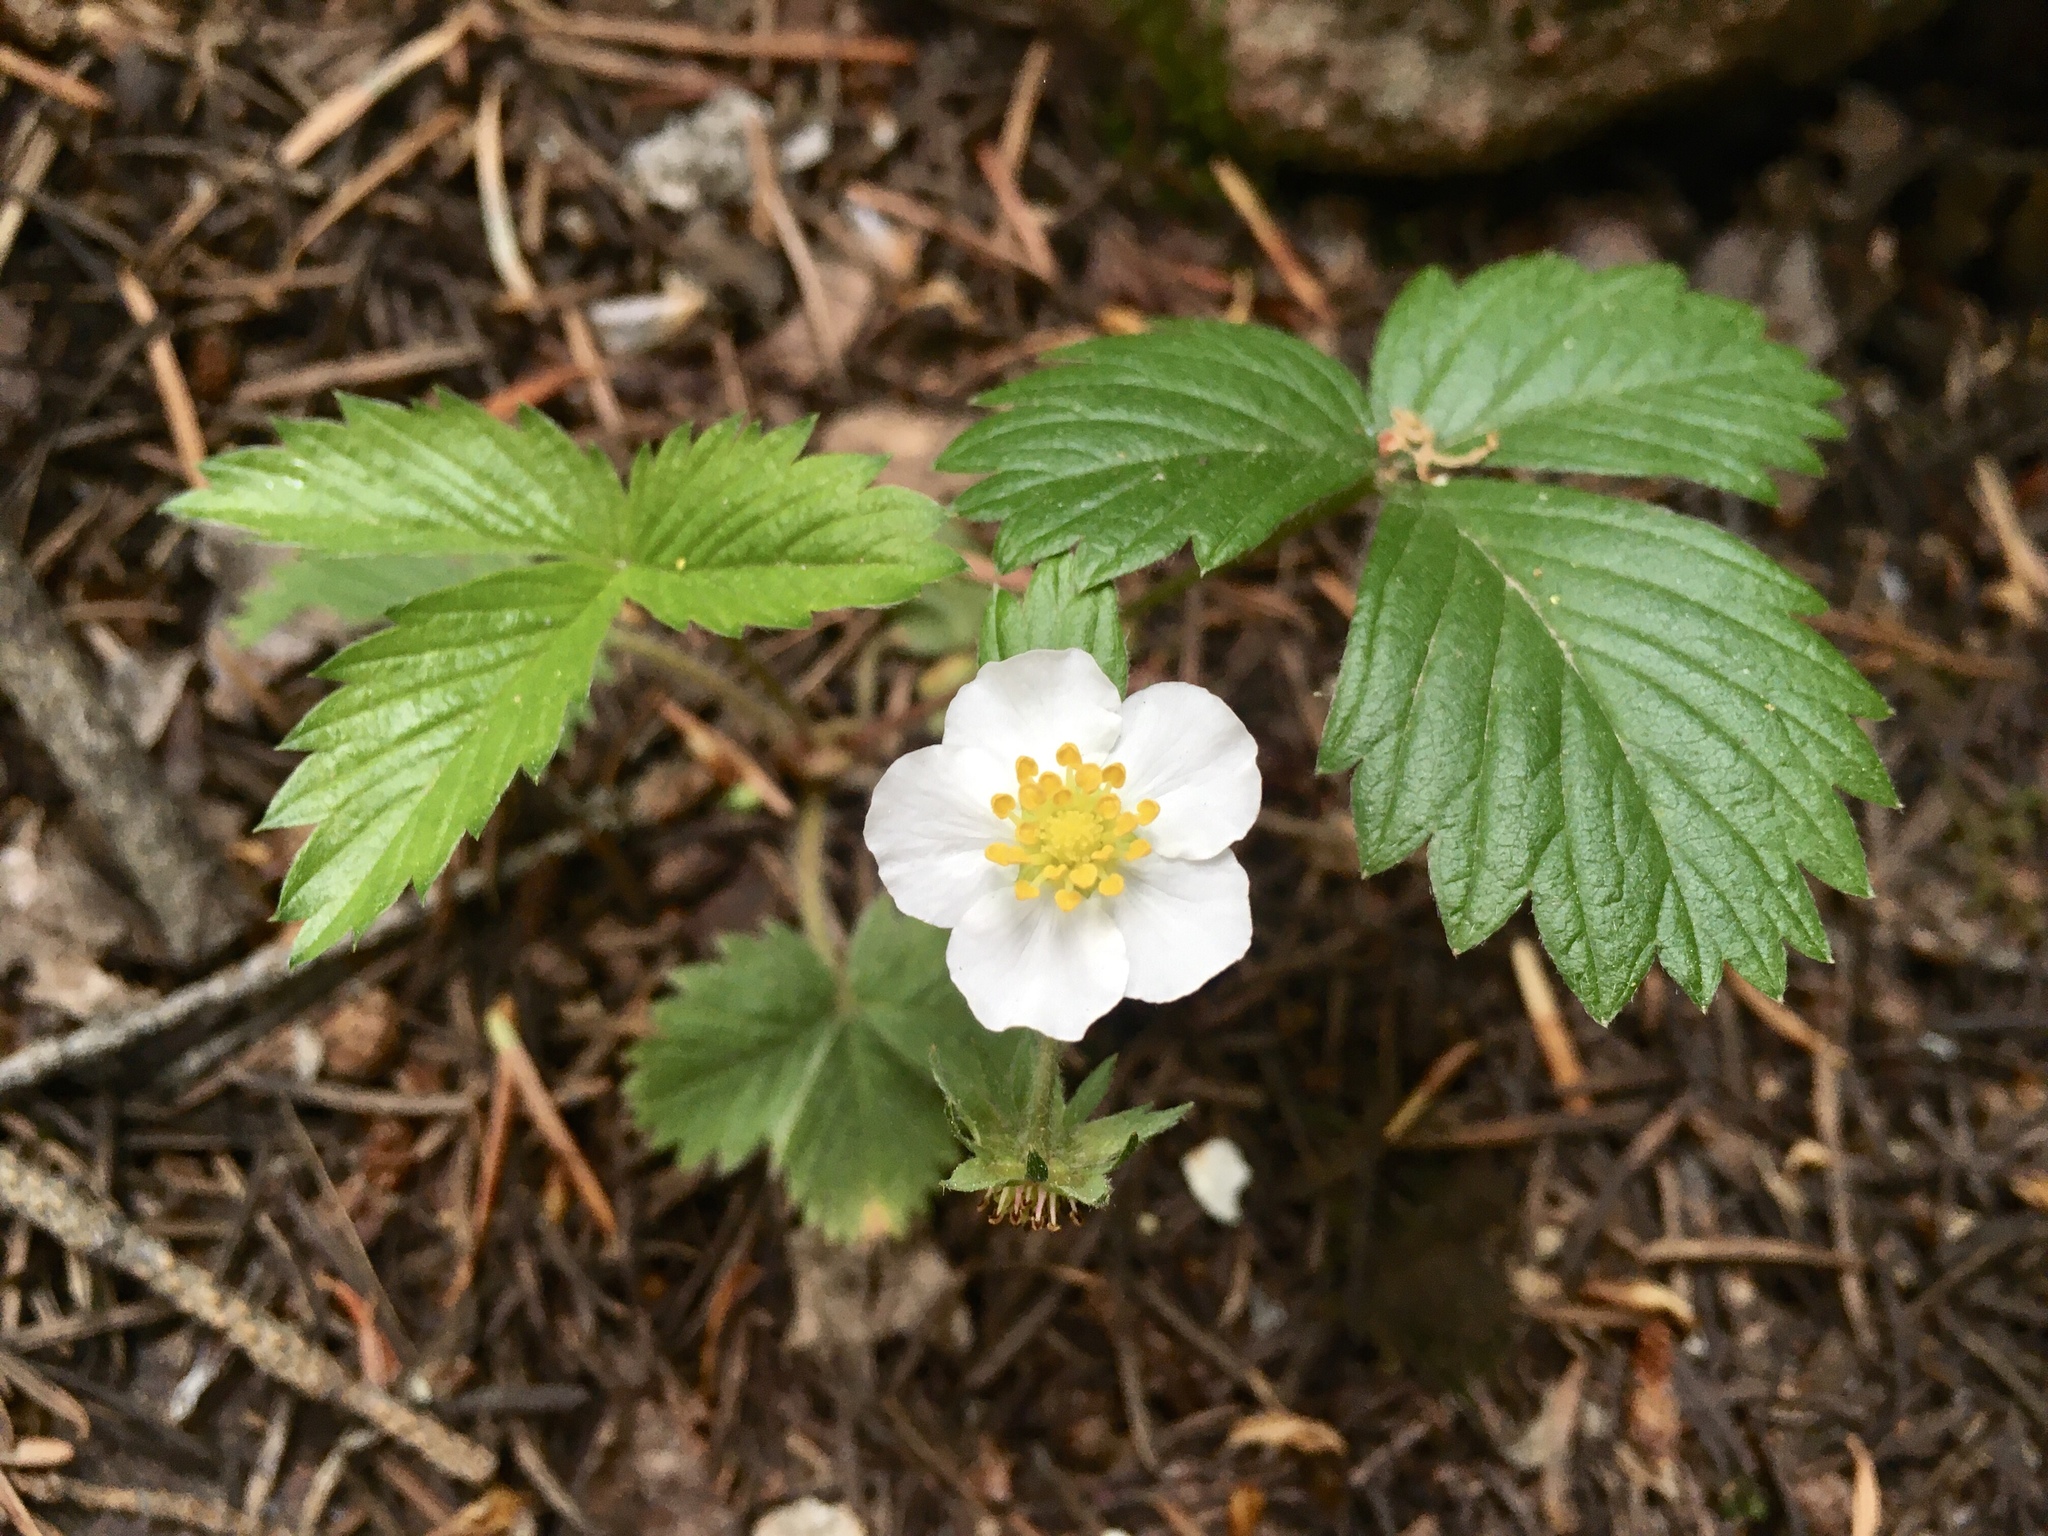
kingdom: Plantae
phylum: Tracheophyta
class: Magnoliopsida
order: Rosales
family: Rosaceae
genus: Fragaria
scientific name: Fragaria vesca
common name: Wild strawberry
